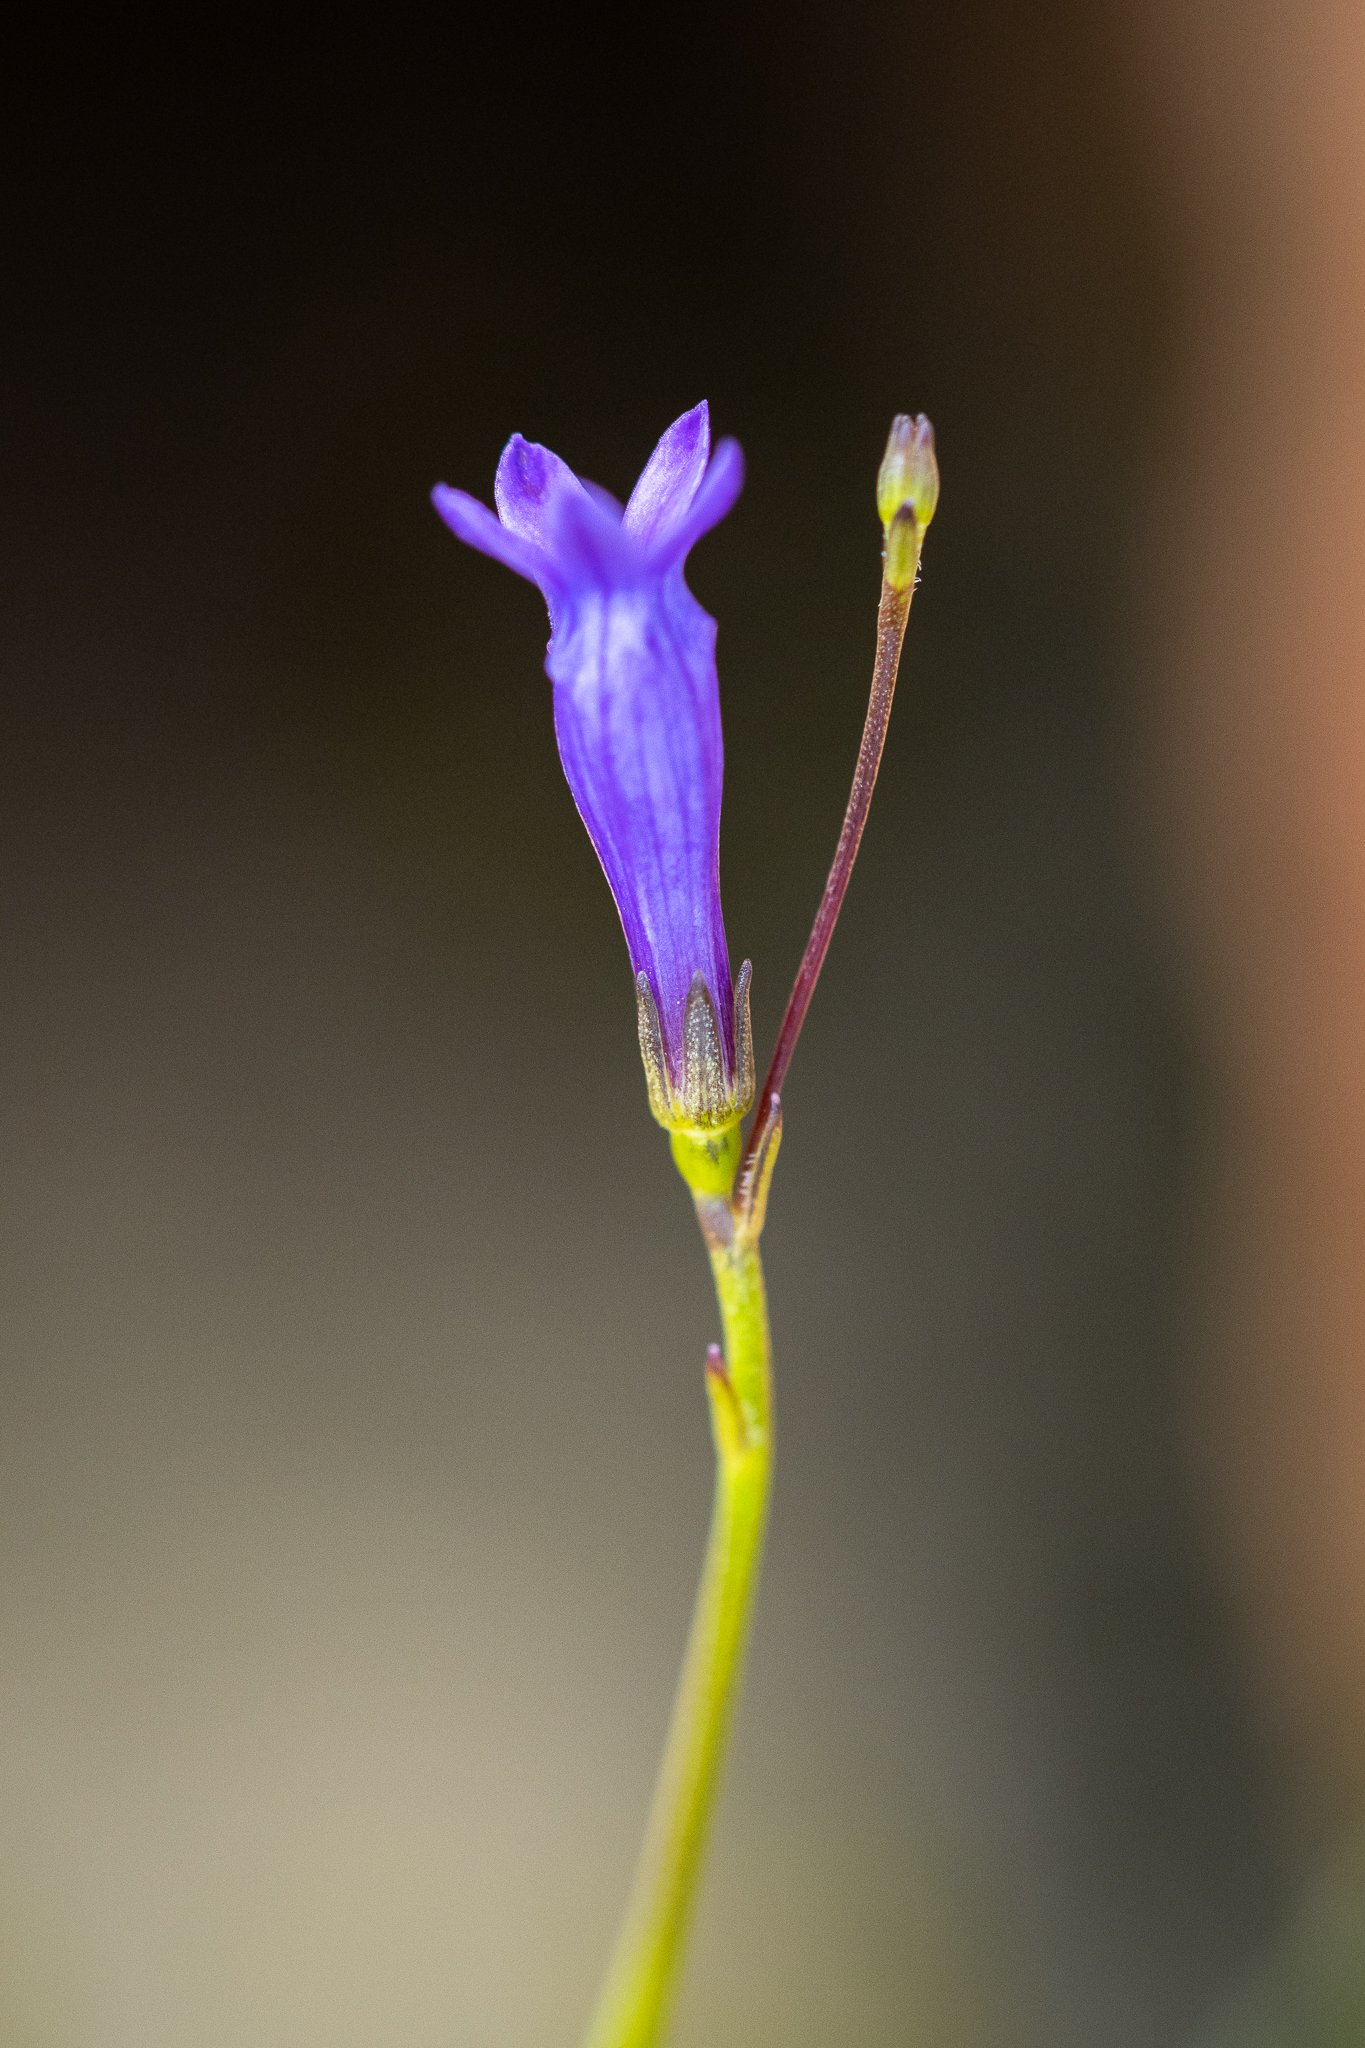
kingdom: Plantae
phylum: Tracheophyta
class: Magnoliopsida
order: Asterales
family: Campanulaceae
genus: Siphocodon
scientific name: Siphocodon spartioides
